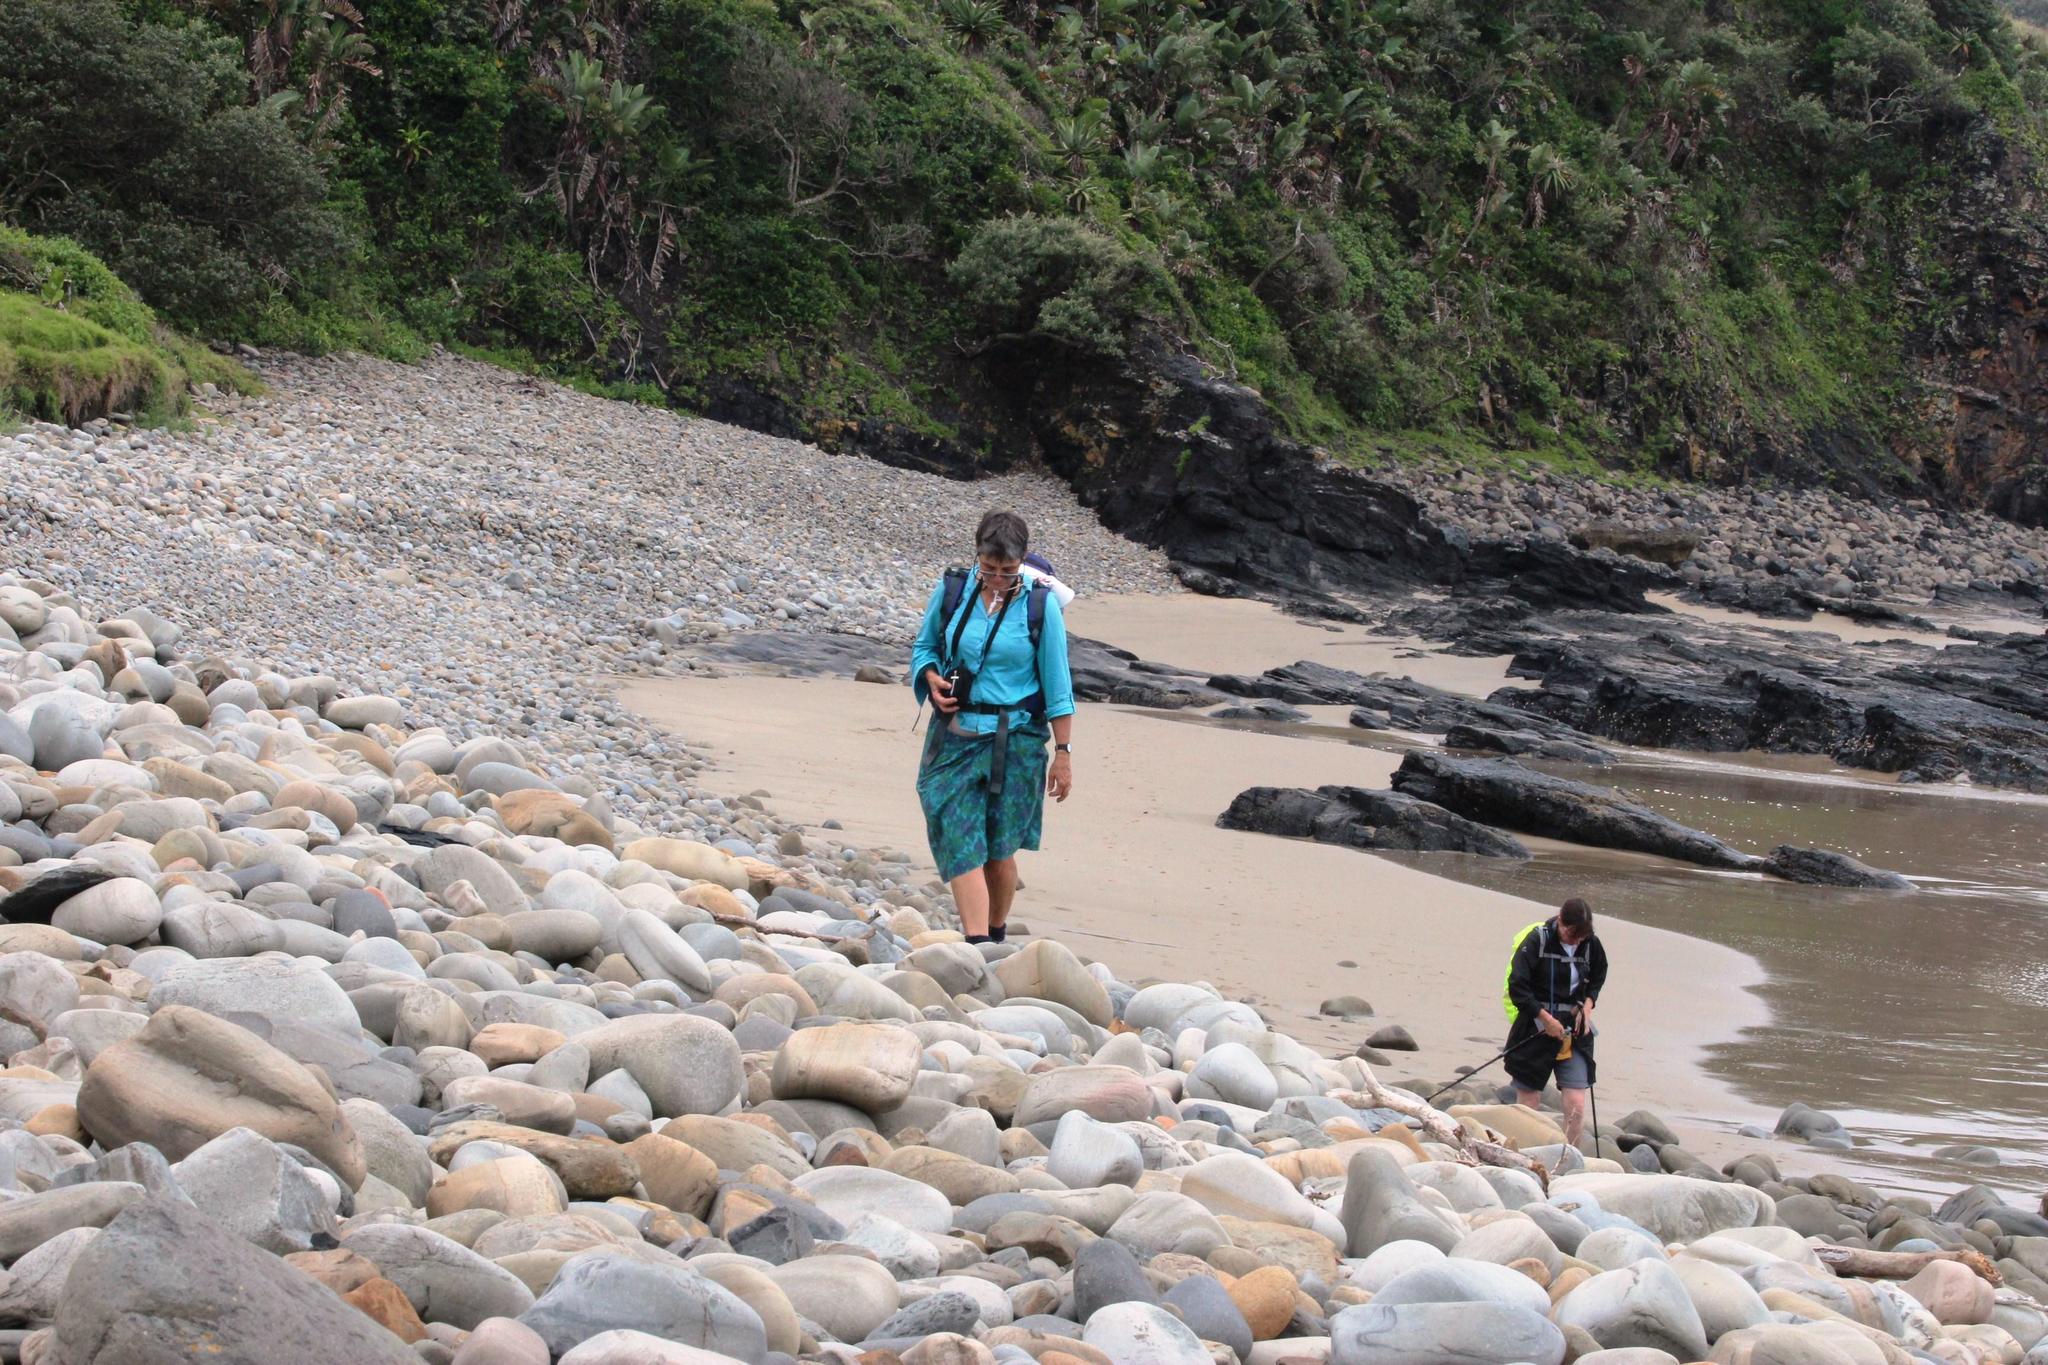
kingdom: Plantae
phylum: Tracheophyta
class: Liliopsida
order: Zingiberales
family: Strelitziaceae
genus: Strelitzia
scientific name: Strelitzia nicolai
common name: Bird-of-paradise tree
